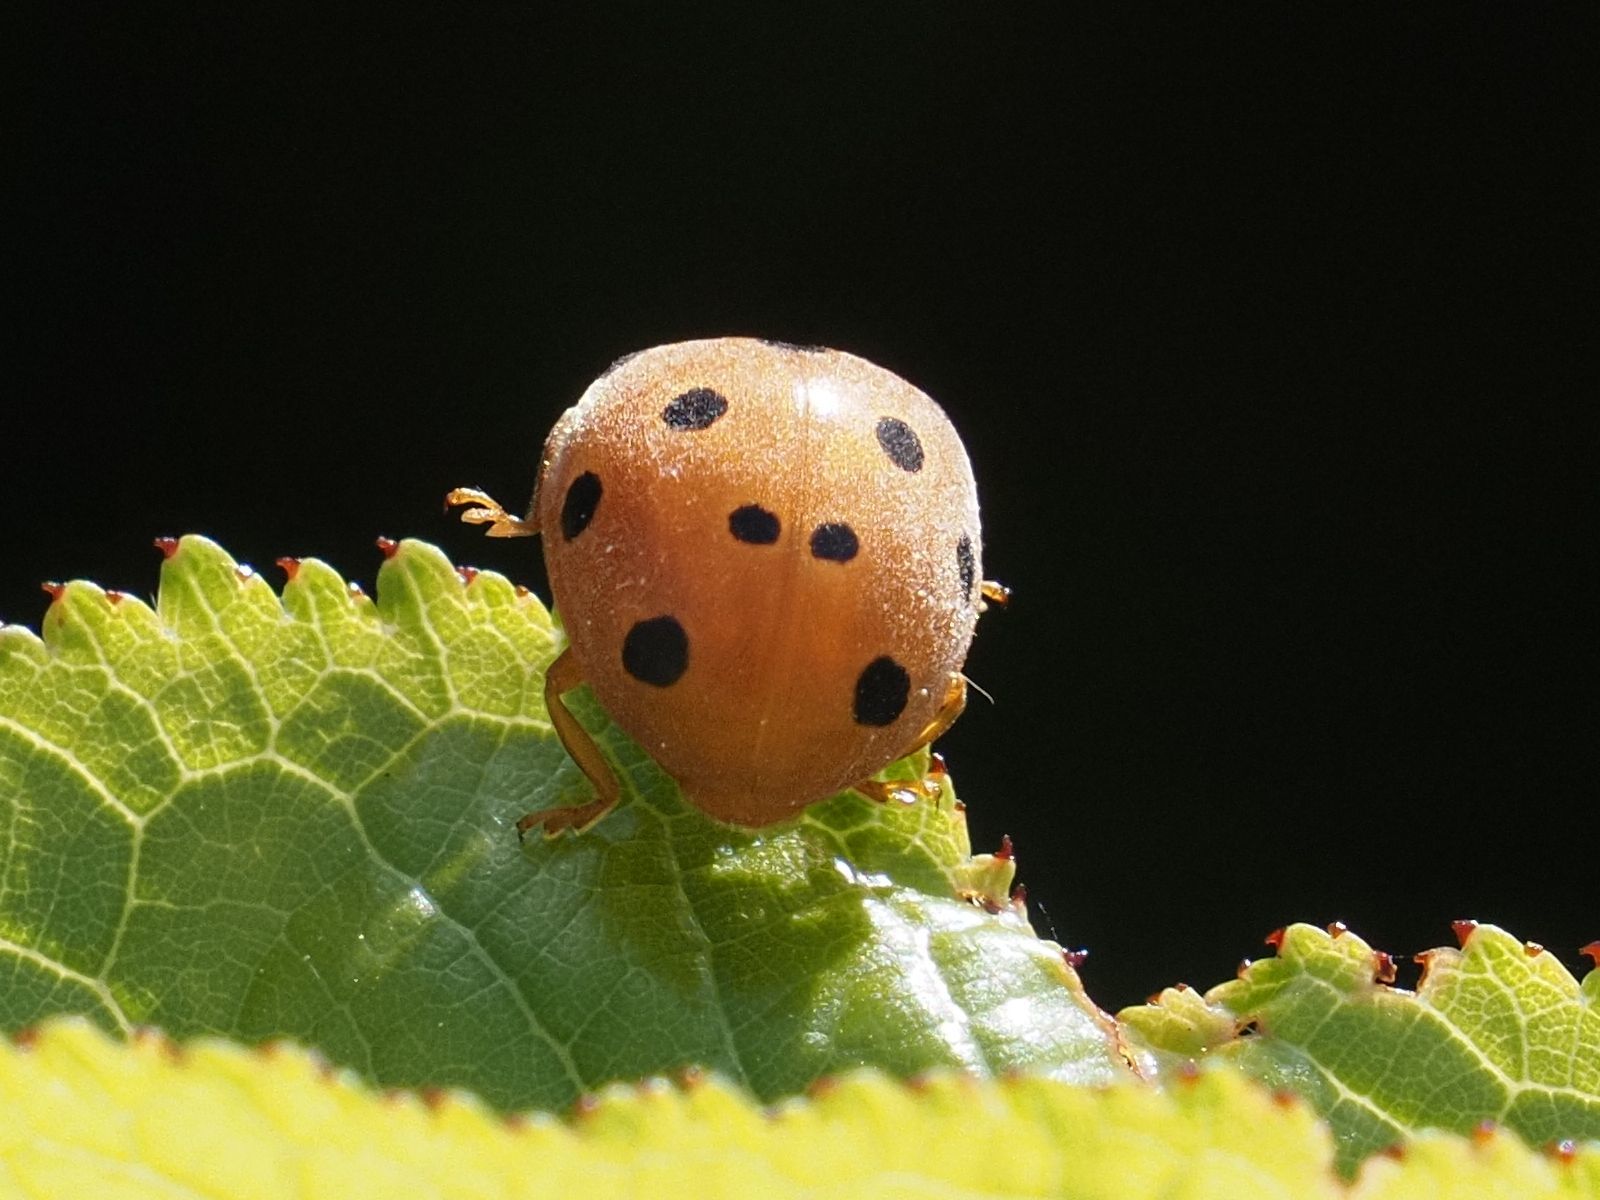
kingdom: Animalia
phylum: Arthropoda
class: Insecta
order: Coleoptera
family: Coccinellidae
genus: Henosepilachna
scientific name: Henosepilachna argus
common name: Bryony ladybird
